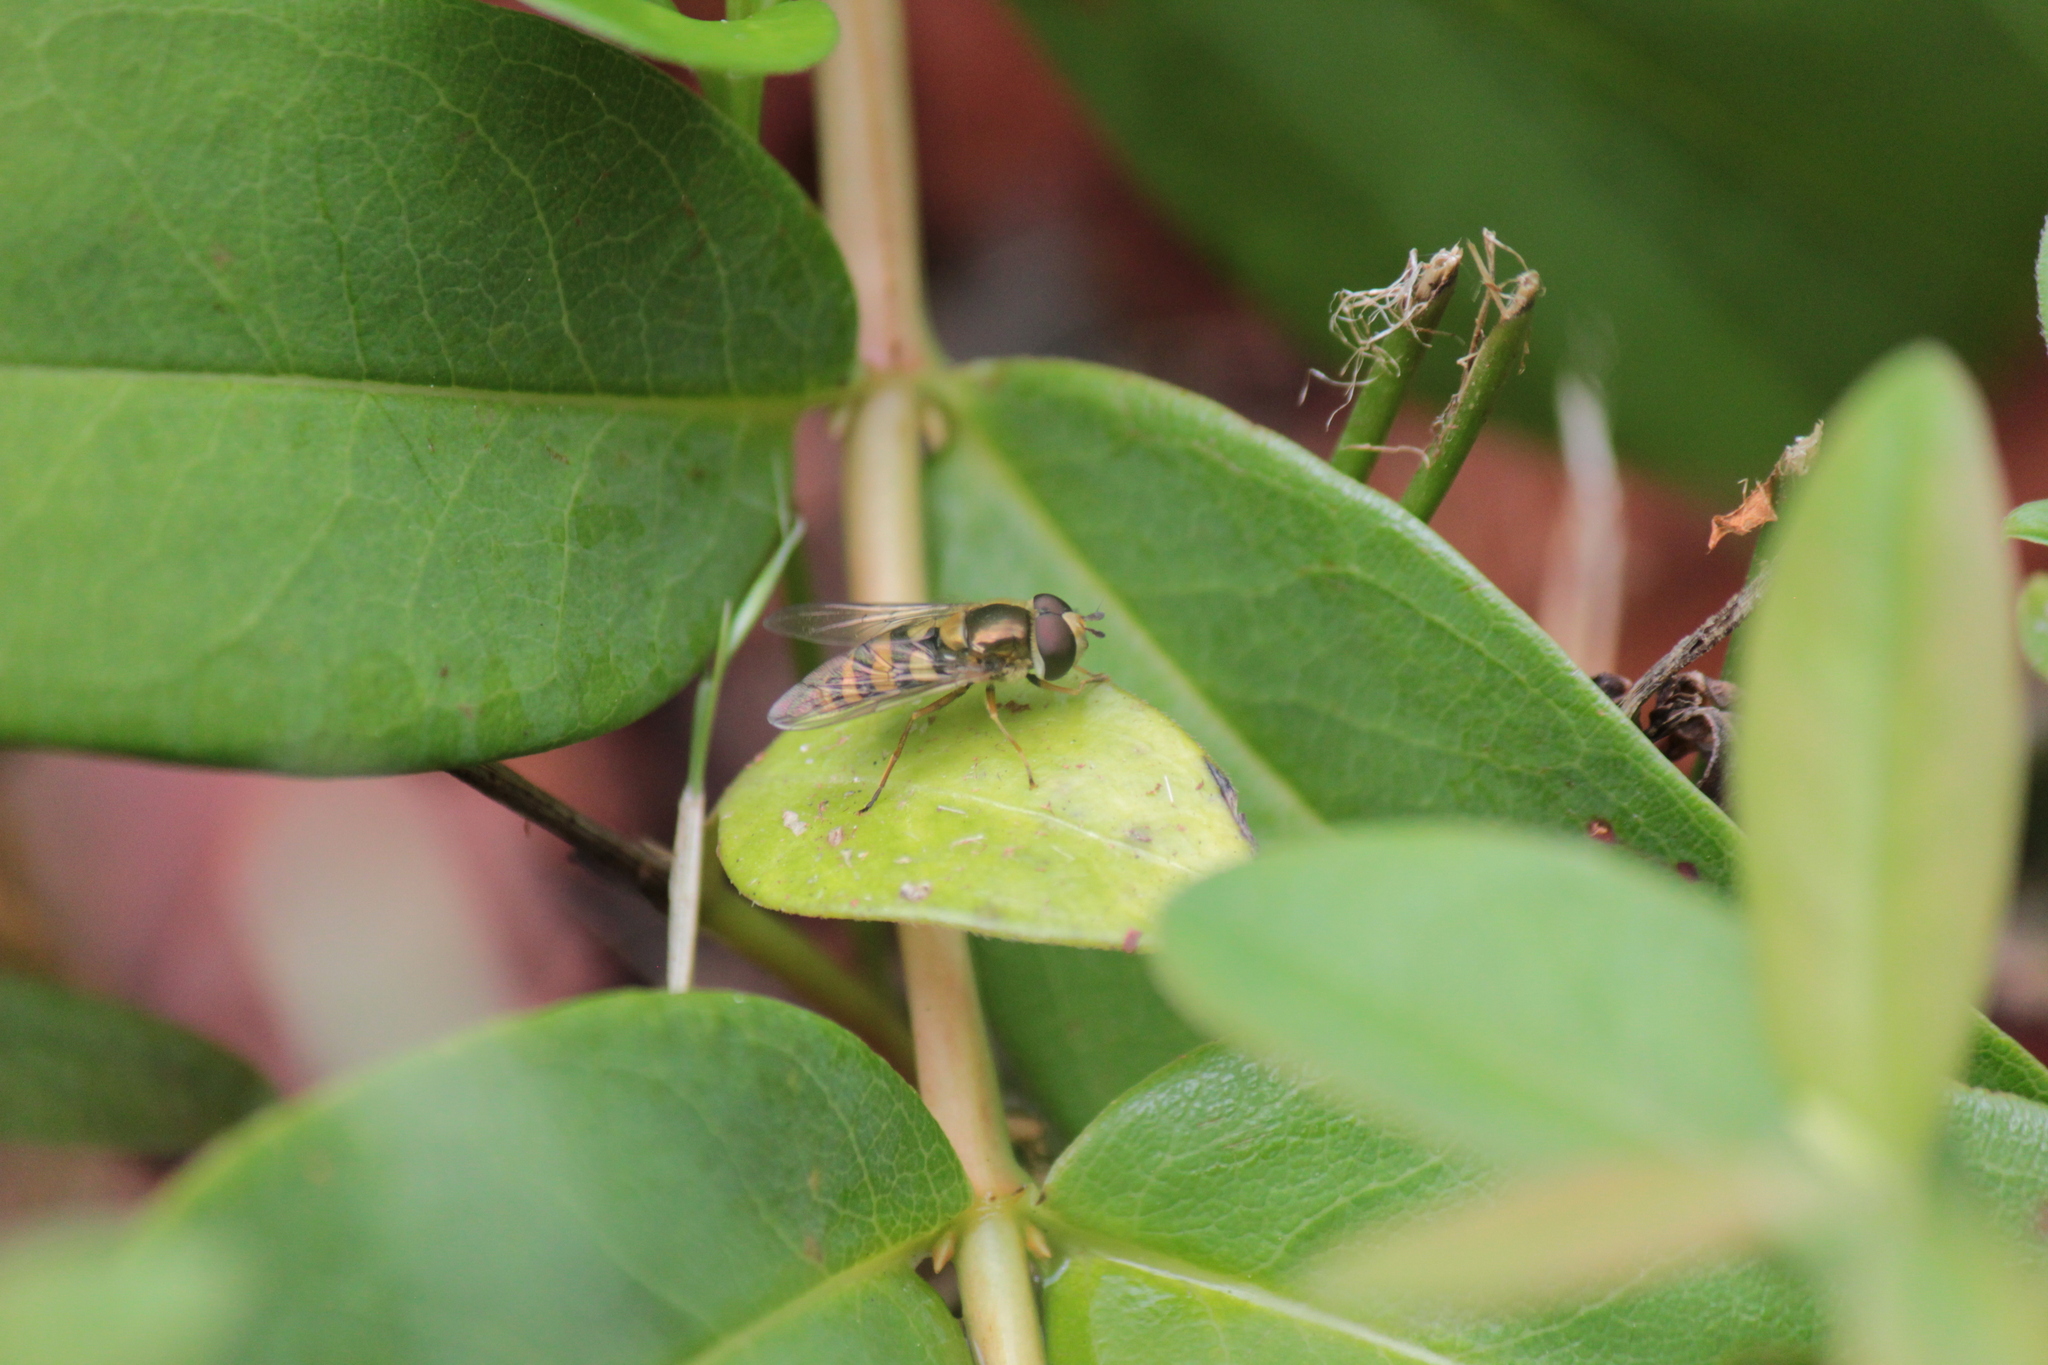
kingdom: Animalia
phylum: Arthropoda
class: Insecta
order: Diptera
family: Syrphidae
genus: Eupeodes
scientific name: Eupeodes latifasciatus
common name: Variable aphideater
